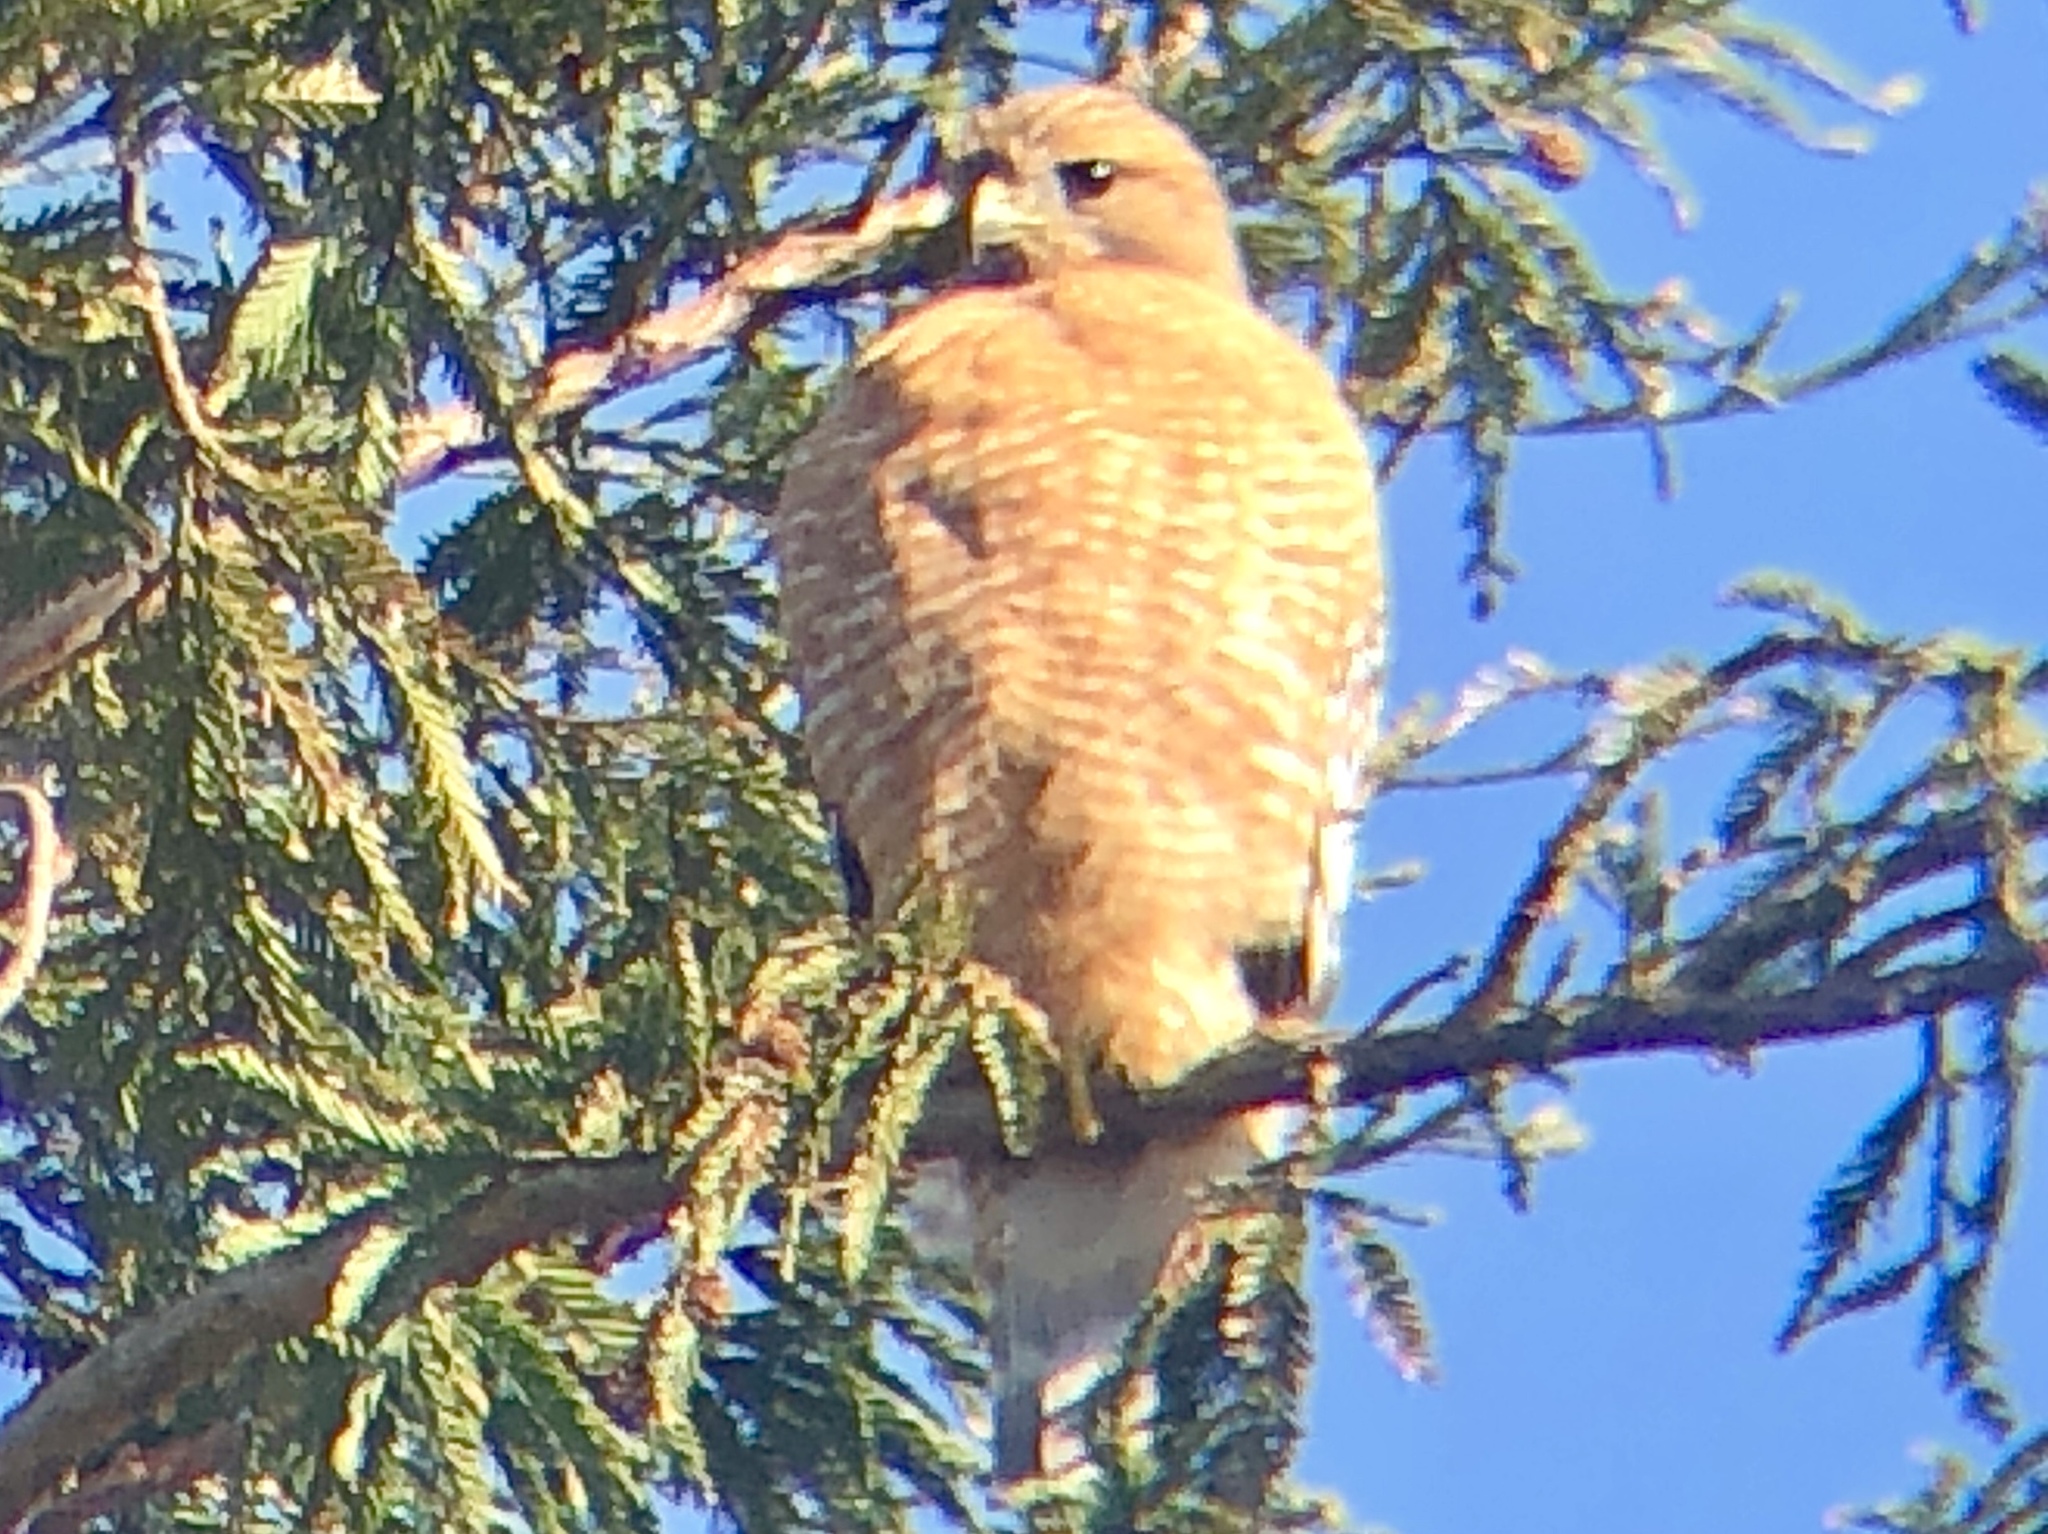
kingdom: Animalia
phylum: Chordata
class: Aves
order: Accipitriformes
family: Accipitridae
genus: Buteo
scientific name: Buteo lineatus
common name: Red-shouldered hawk
